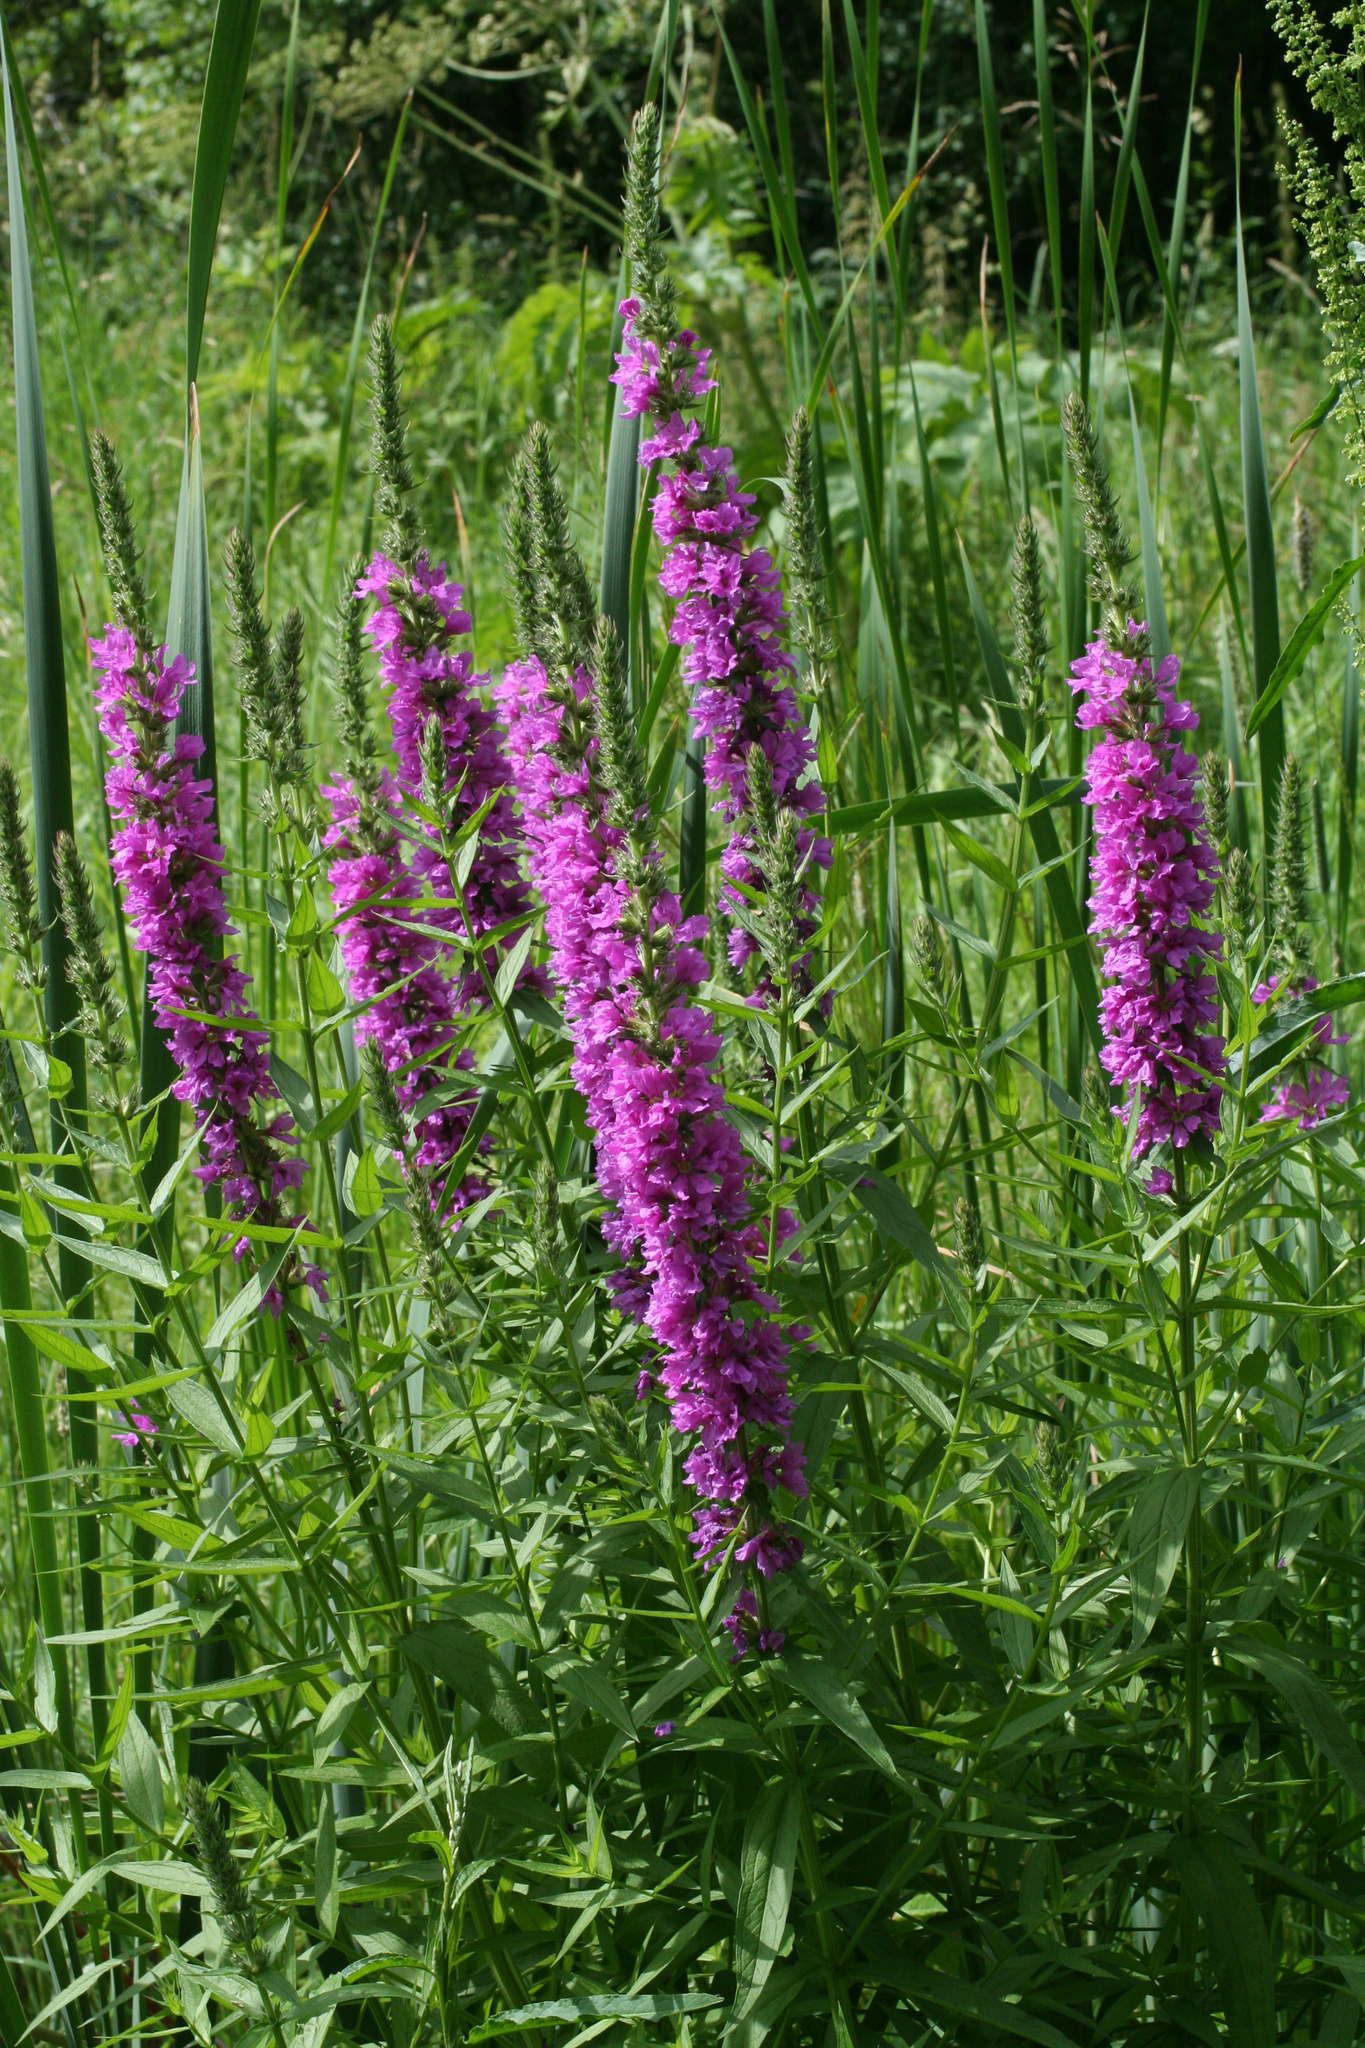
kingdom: Plantae
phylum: Tracheophyta
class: Magnoliopsida
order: Myrtales
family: Lythraceae
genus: Lythrum
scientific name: Lythrum salicaria
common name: Purple loosestrife
